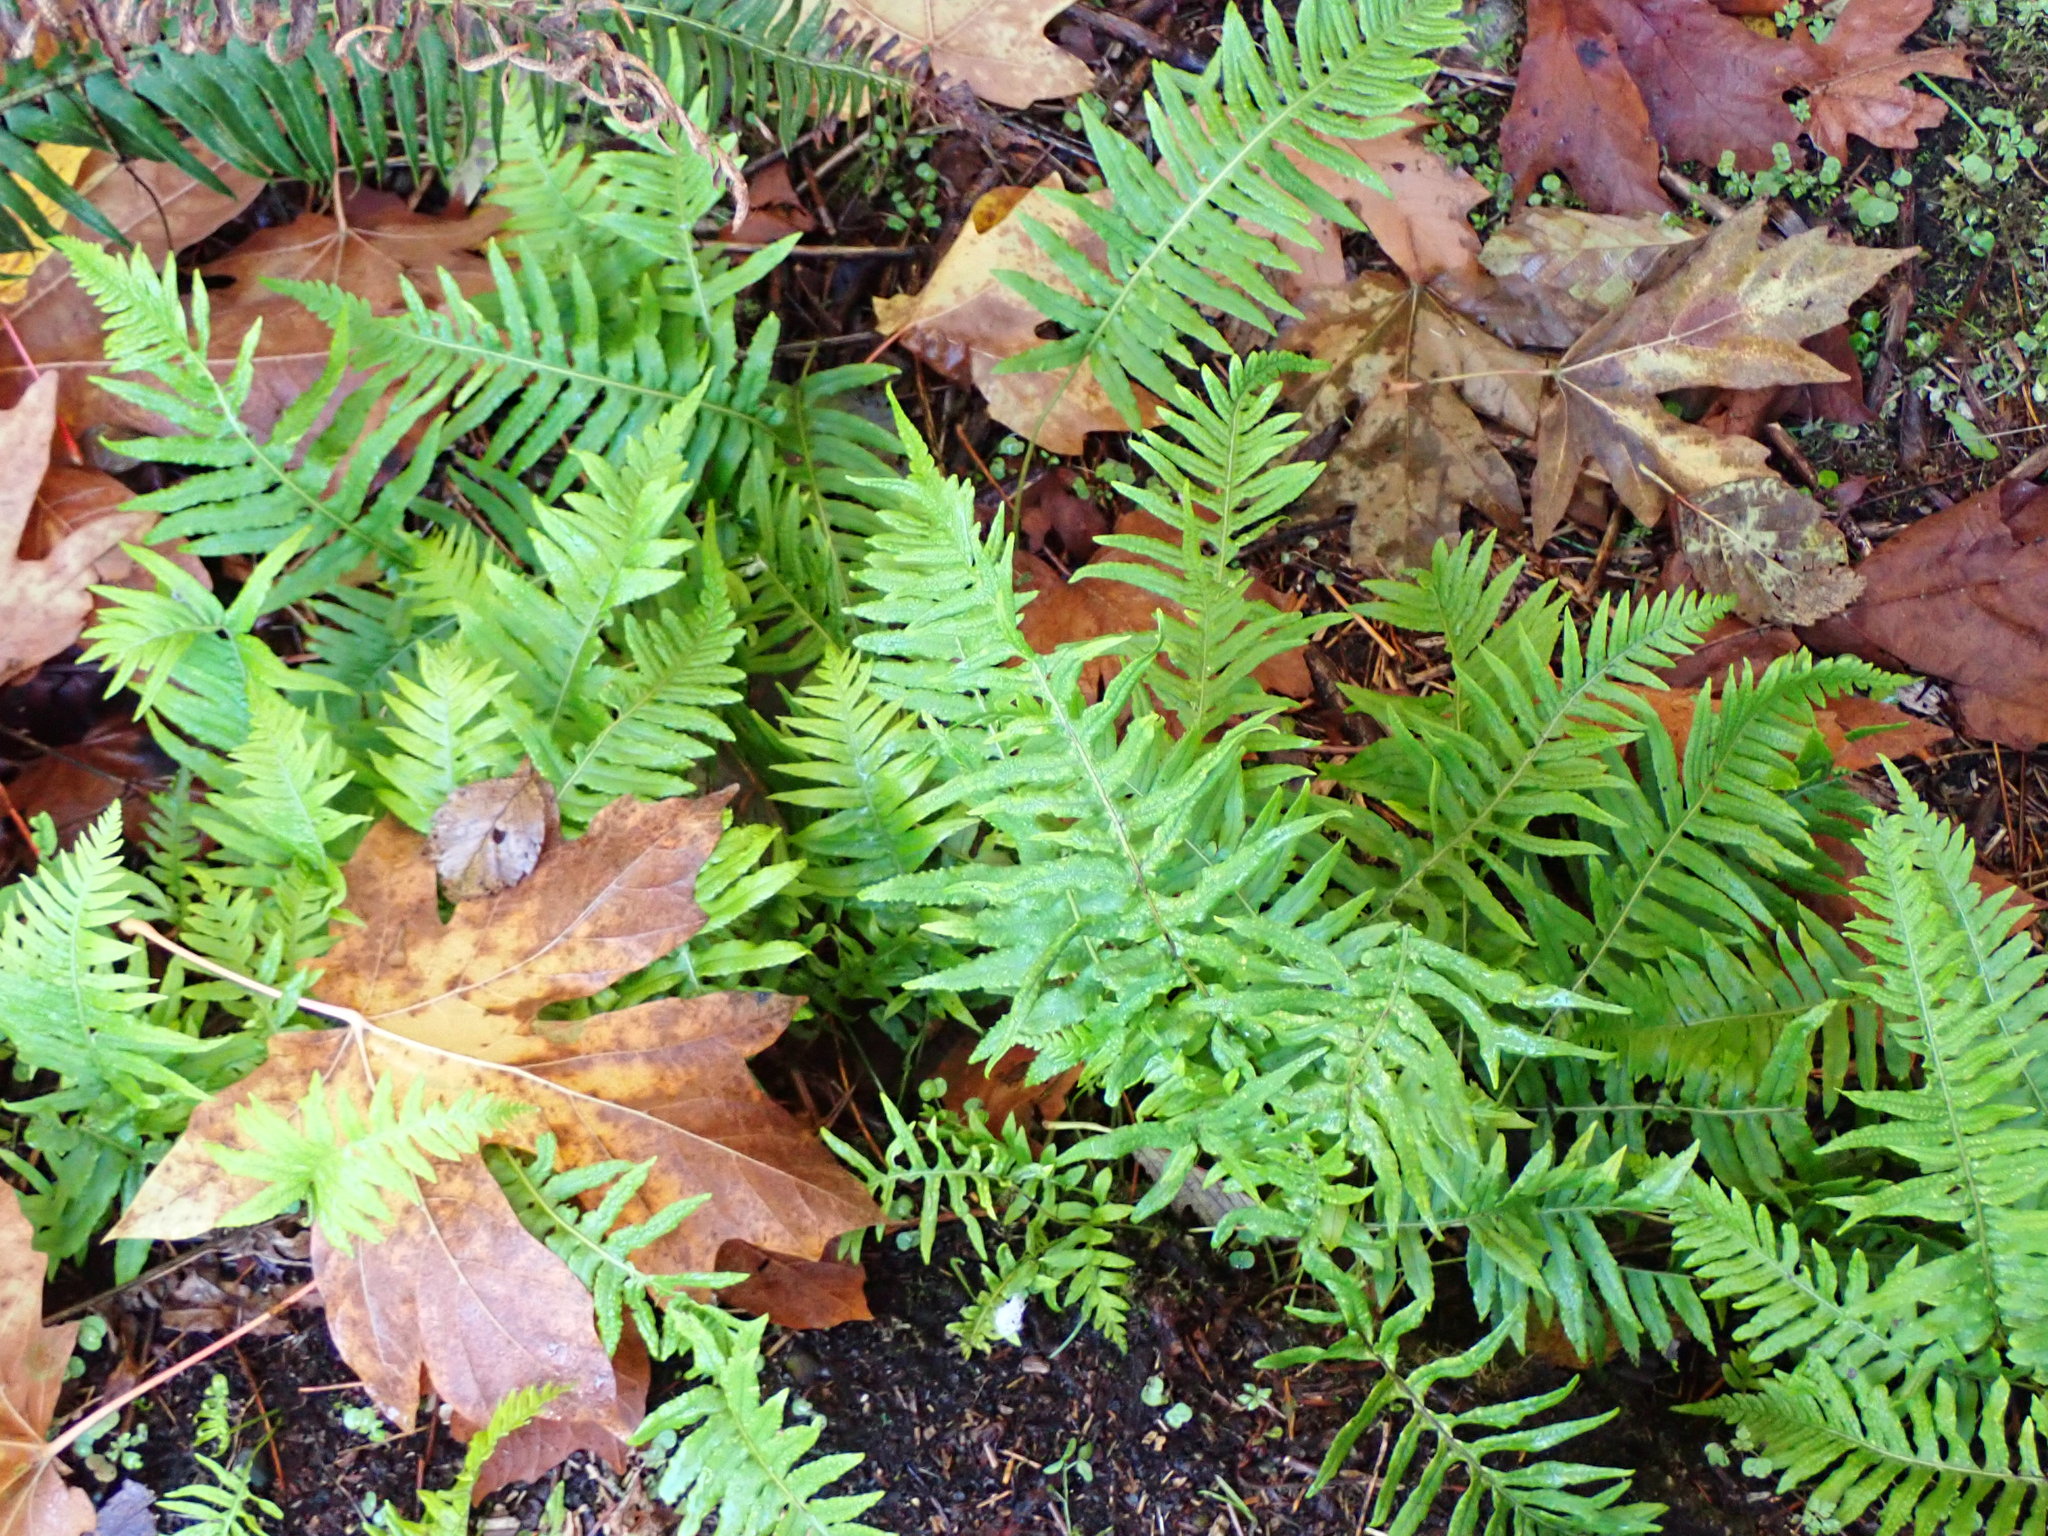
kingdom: Plantae
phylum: Tracheophyta
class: Polypodiopsida
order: Polypodiales
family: Polypodiaceae
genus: Polypodium
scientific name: Polypodium glycyrrhiza
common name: Licorice fern
